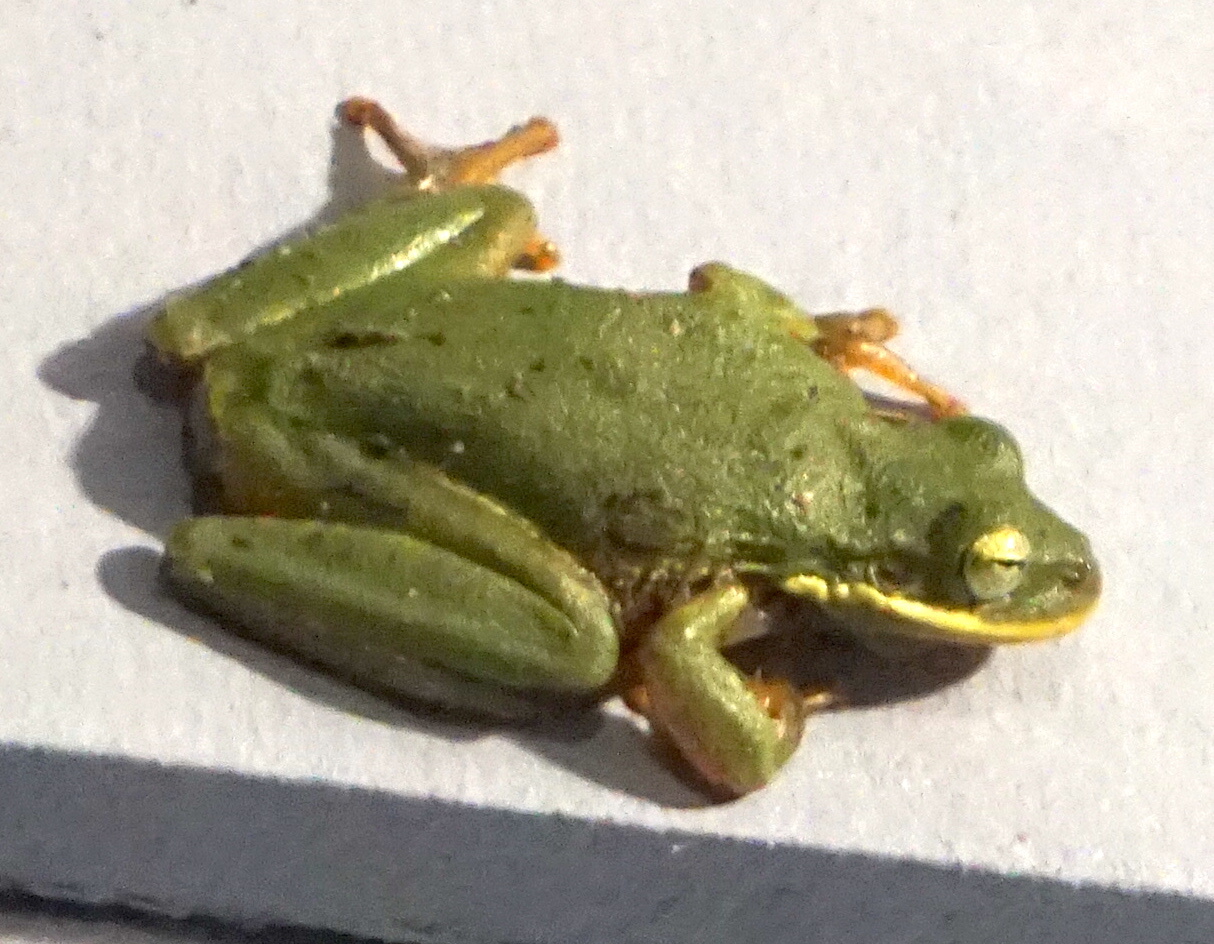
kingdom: Animalia
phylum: Chordata
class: Amphibia
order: Anura
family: Hylidae
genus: Dryophytes
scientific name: Dryophytes squirellus
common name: Squirrel treefrog
